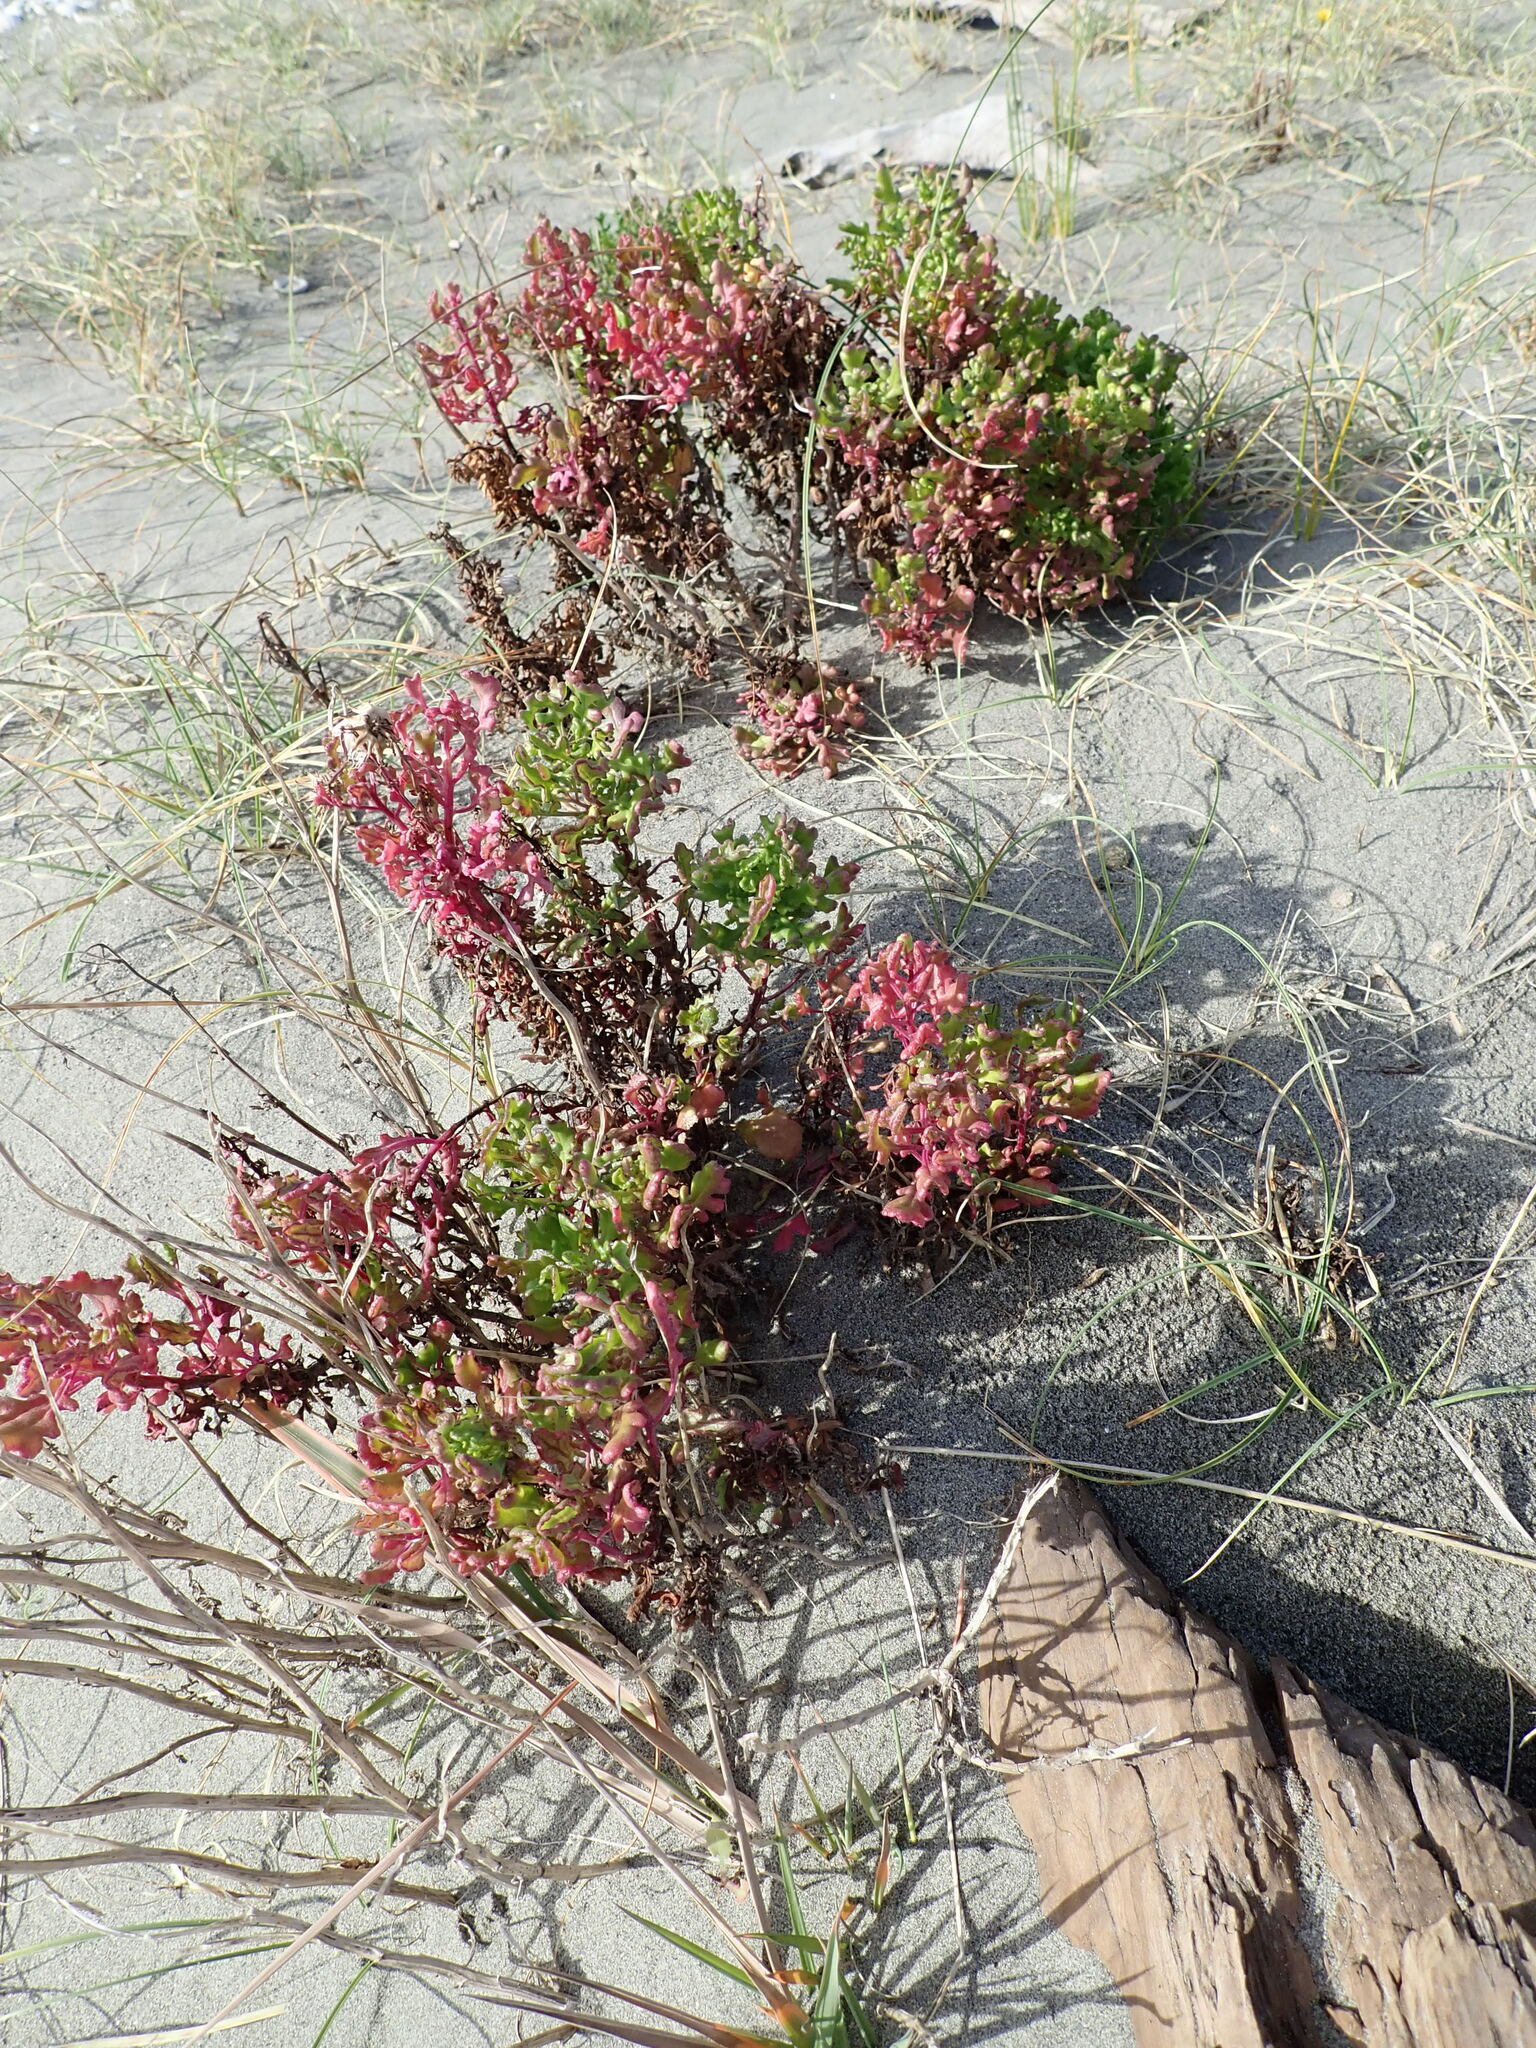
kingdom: Plantae
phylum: Tracheophyta
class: Magnoliopsida
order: Asterales
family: Asteraceae
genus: Senecio
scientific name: Senecio elegans
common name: Purple groundsel
